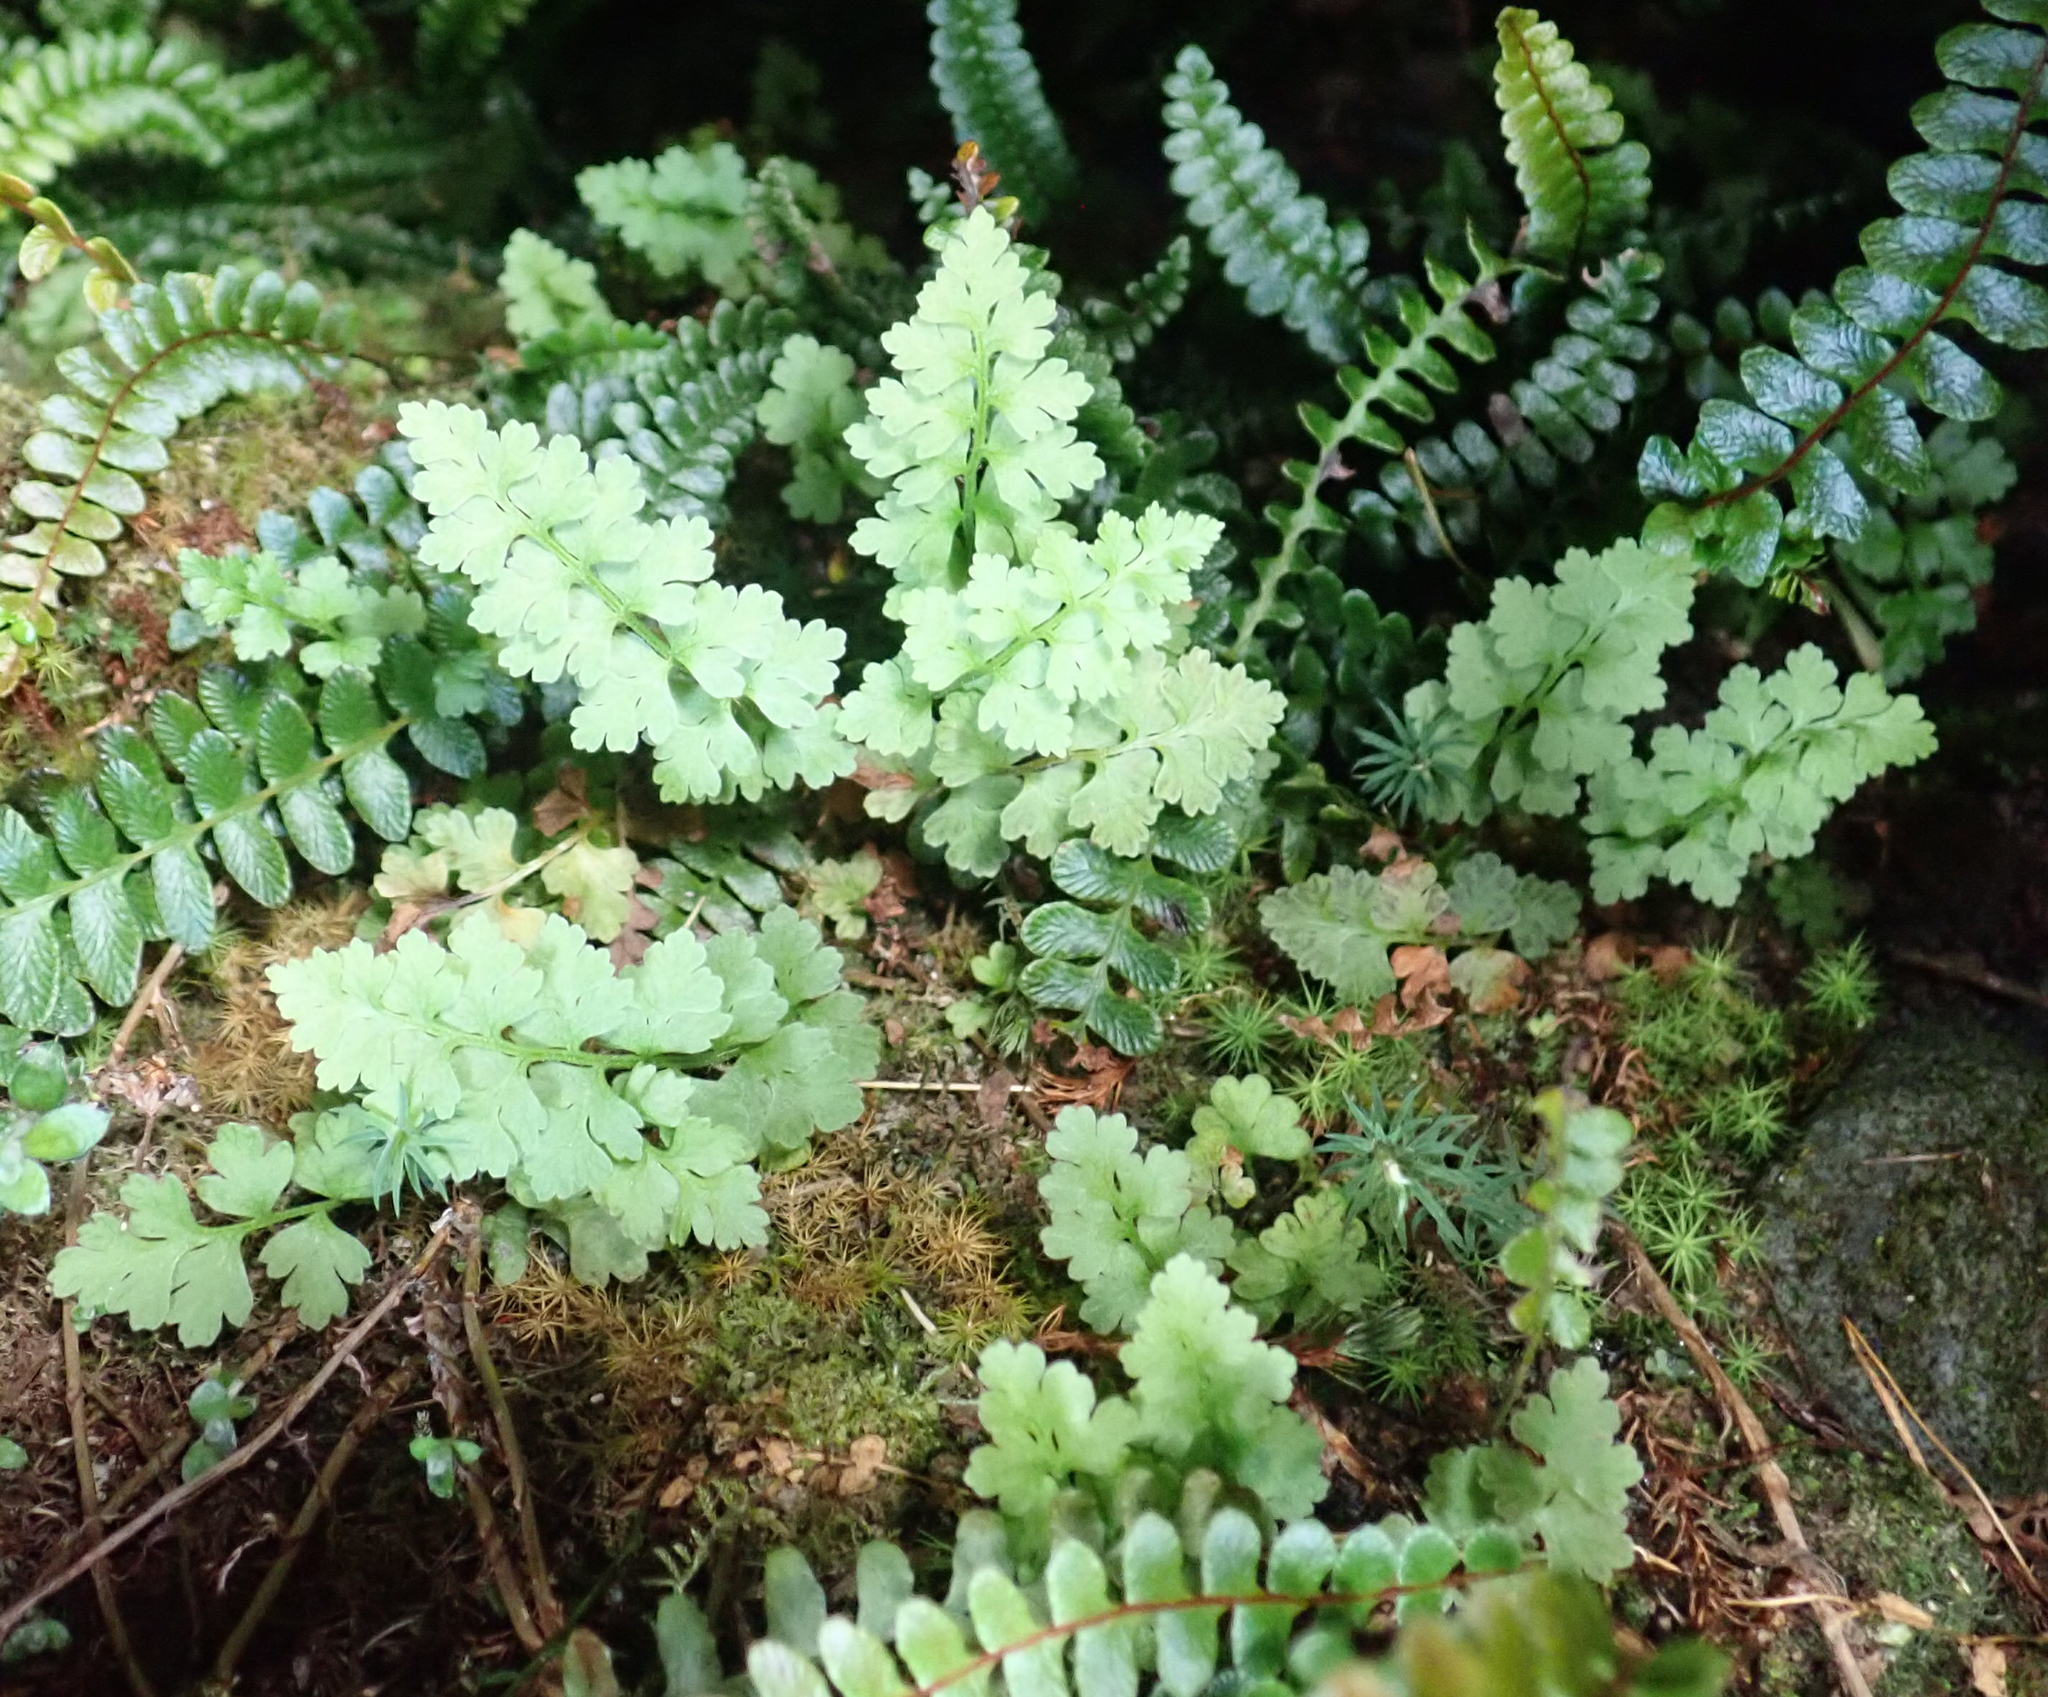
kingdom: Plantae
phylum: Tracheophyta
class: Polypodiopsida
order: Polypodiales
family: Cystopteridaceae
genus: Cystopteris
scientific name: Cystopteris tasmanica
